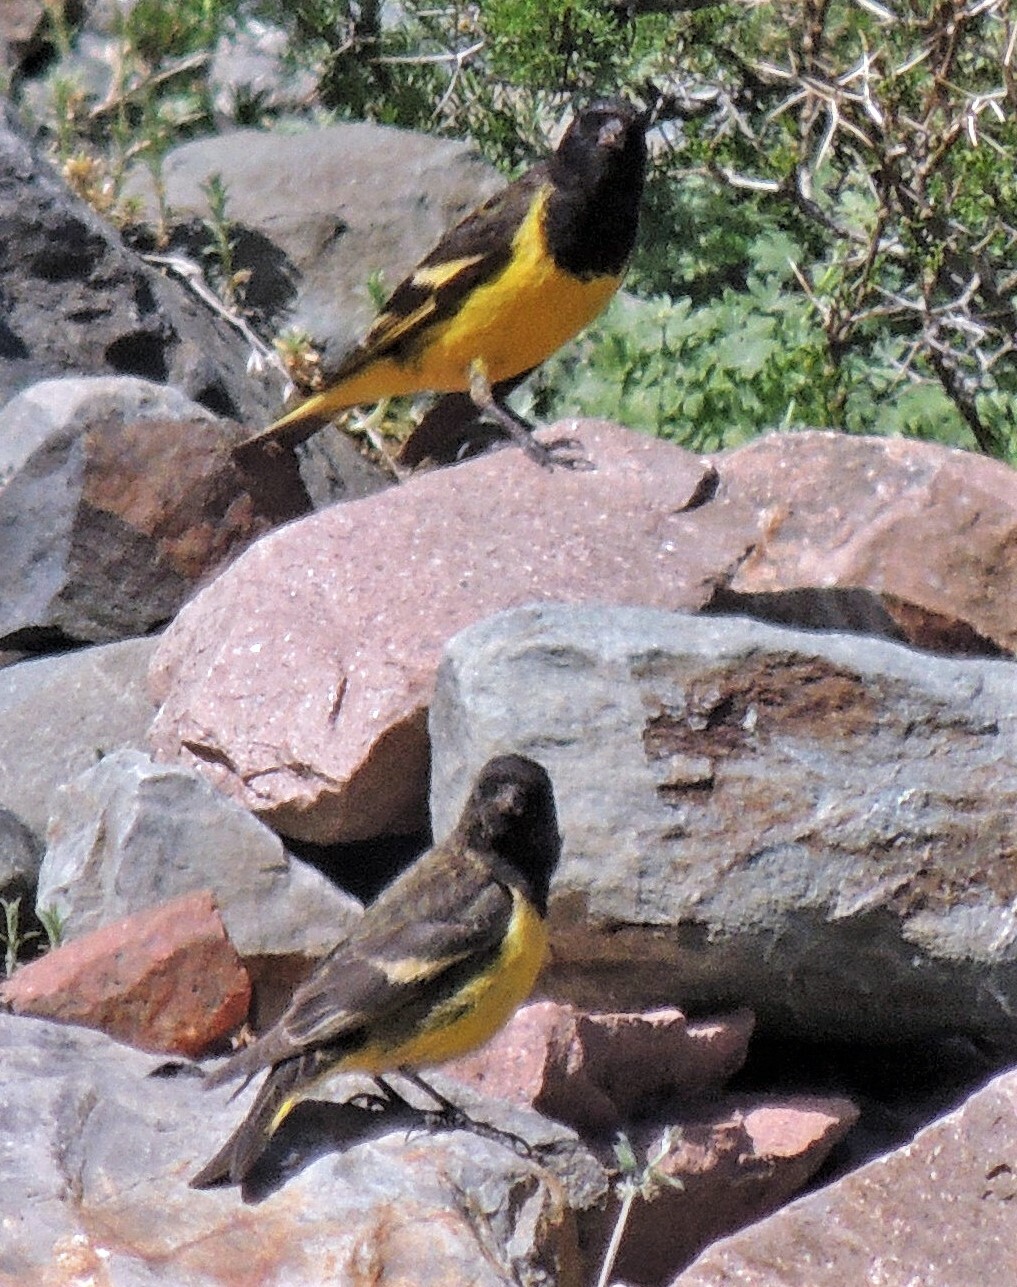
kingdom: Animalia
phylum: Chordata
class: Aves
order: Passeriformes
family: Fringillidae
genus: Spinus
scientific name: Spinus uropygialis
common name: Yellow-rumped siskin
